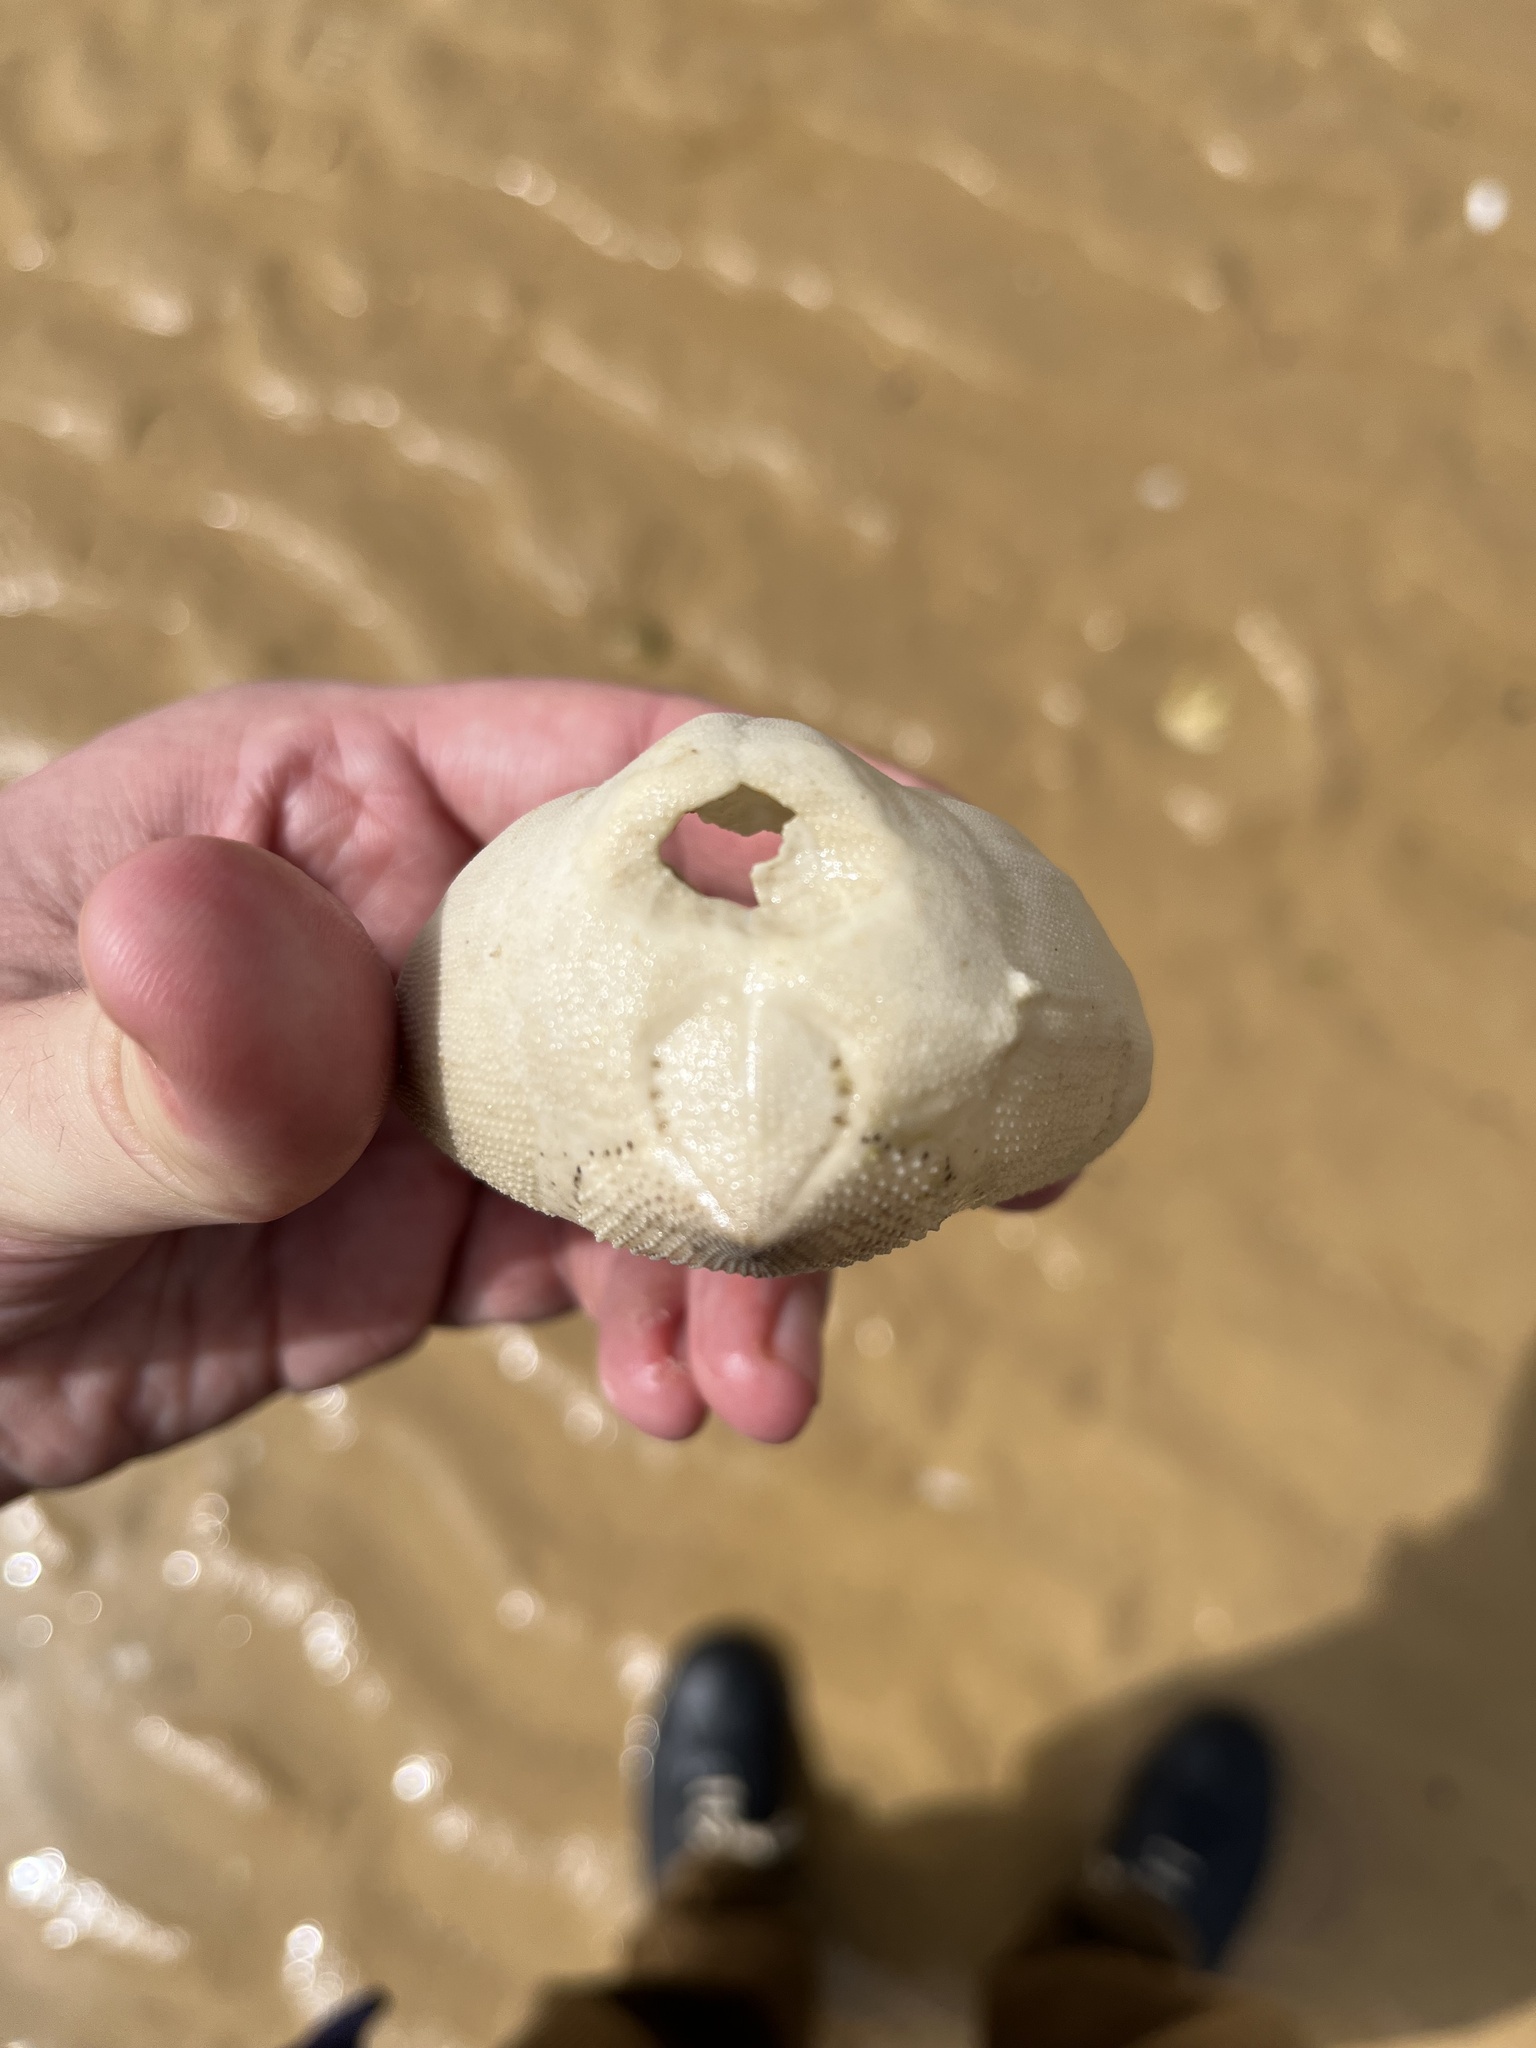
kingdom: Animalia
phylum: Echinodermata
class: Echinoidea
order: Spatangoida
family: Loveniidae
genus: Echinocardium
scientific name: Echinocardium cordatum
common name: Heart-urchin
